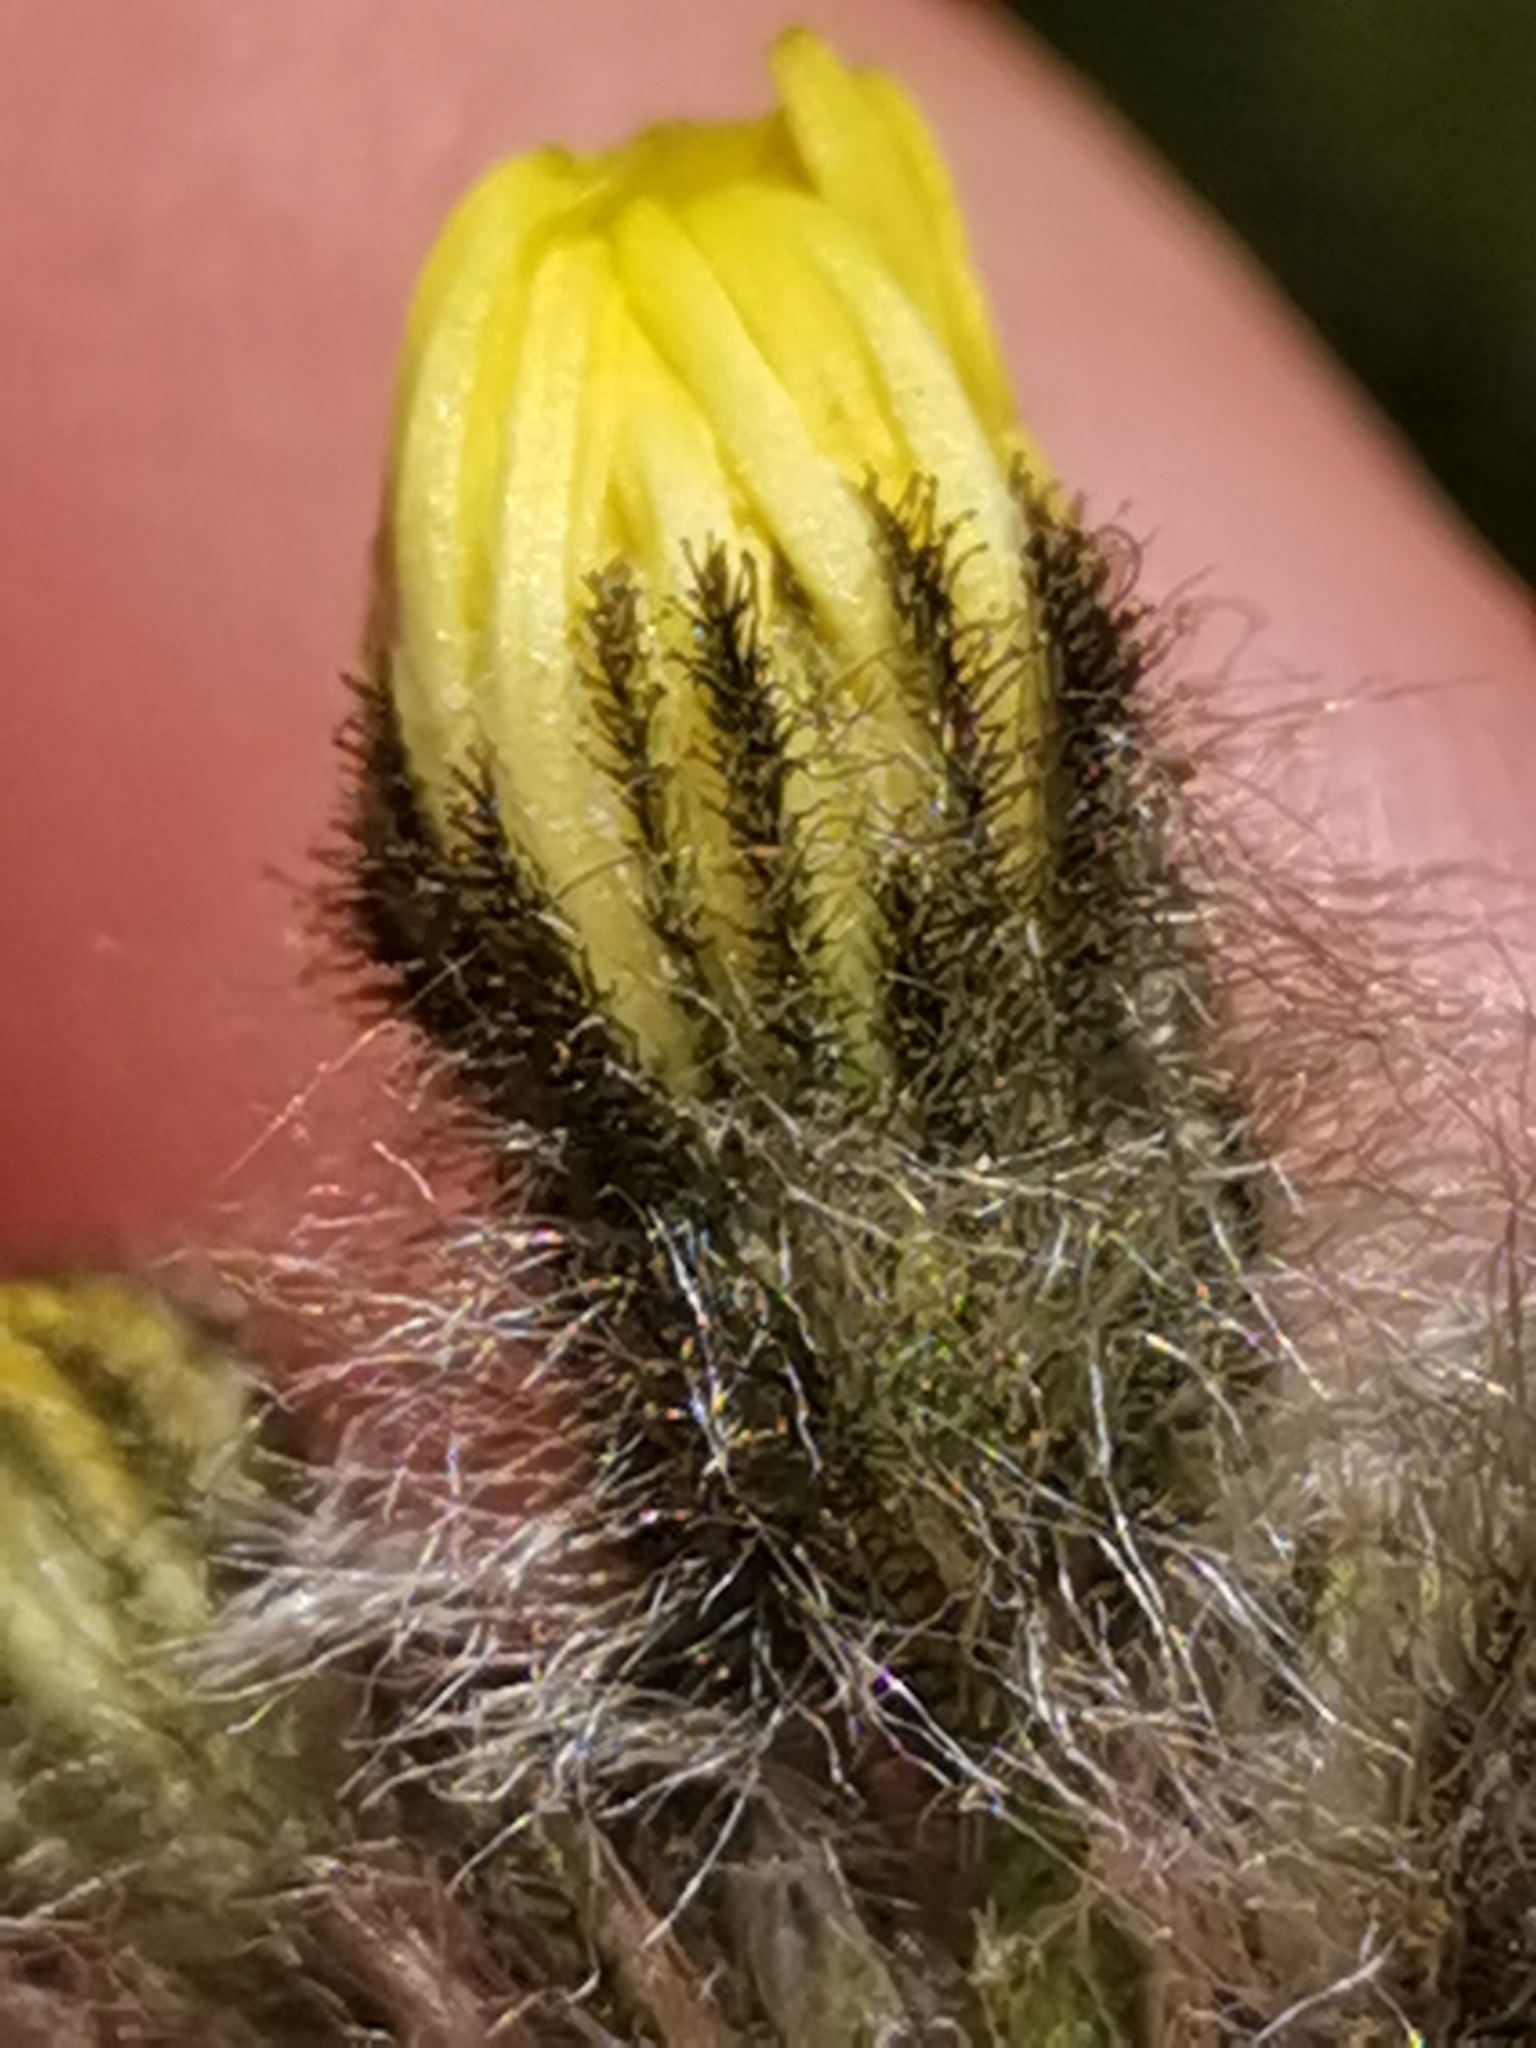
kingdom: Plantae
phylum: Tracheophyta
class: Magnoliopsida
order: Asterales
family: Asteraceae
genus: Pilosella
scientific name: Pilosella cymosa
